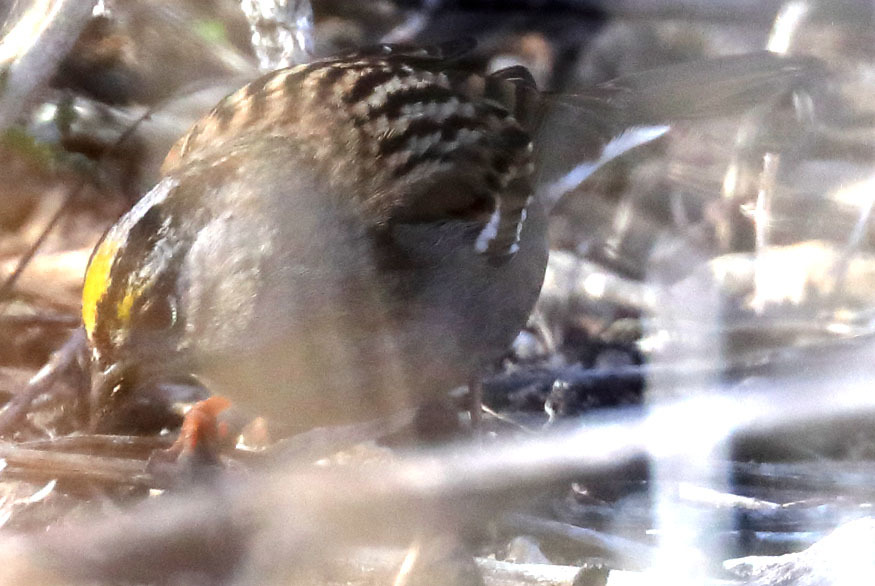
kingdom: Animalia
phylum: Chordata
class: Aves
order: Passeriformes
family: Passerellidae
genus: Zonotrichia
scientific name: Zonotrichia atricapilla
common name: Golden-crowned sparrow
